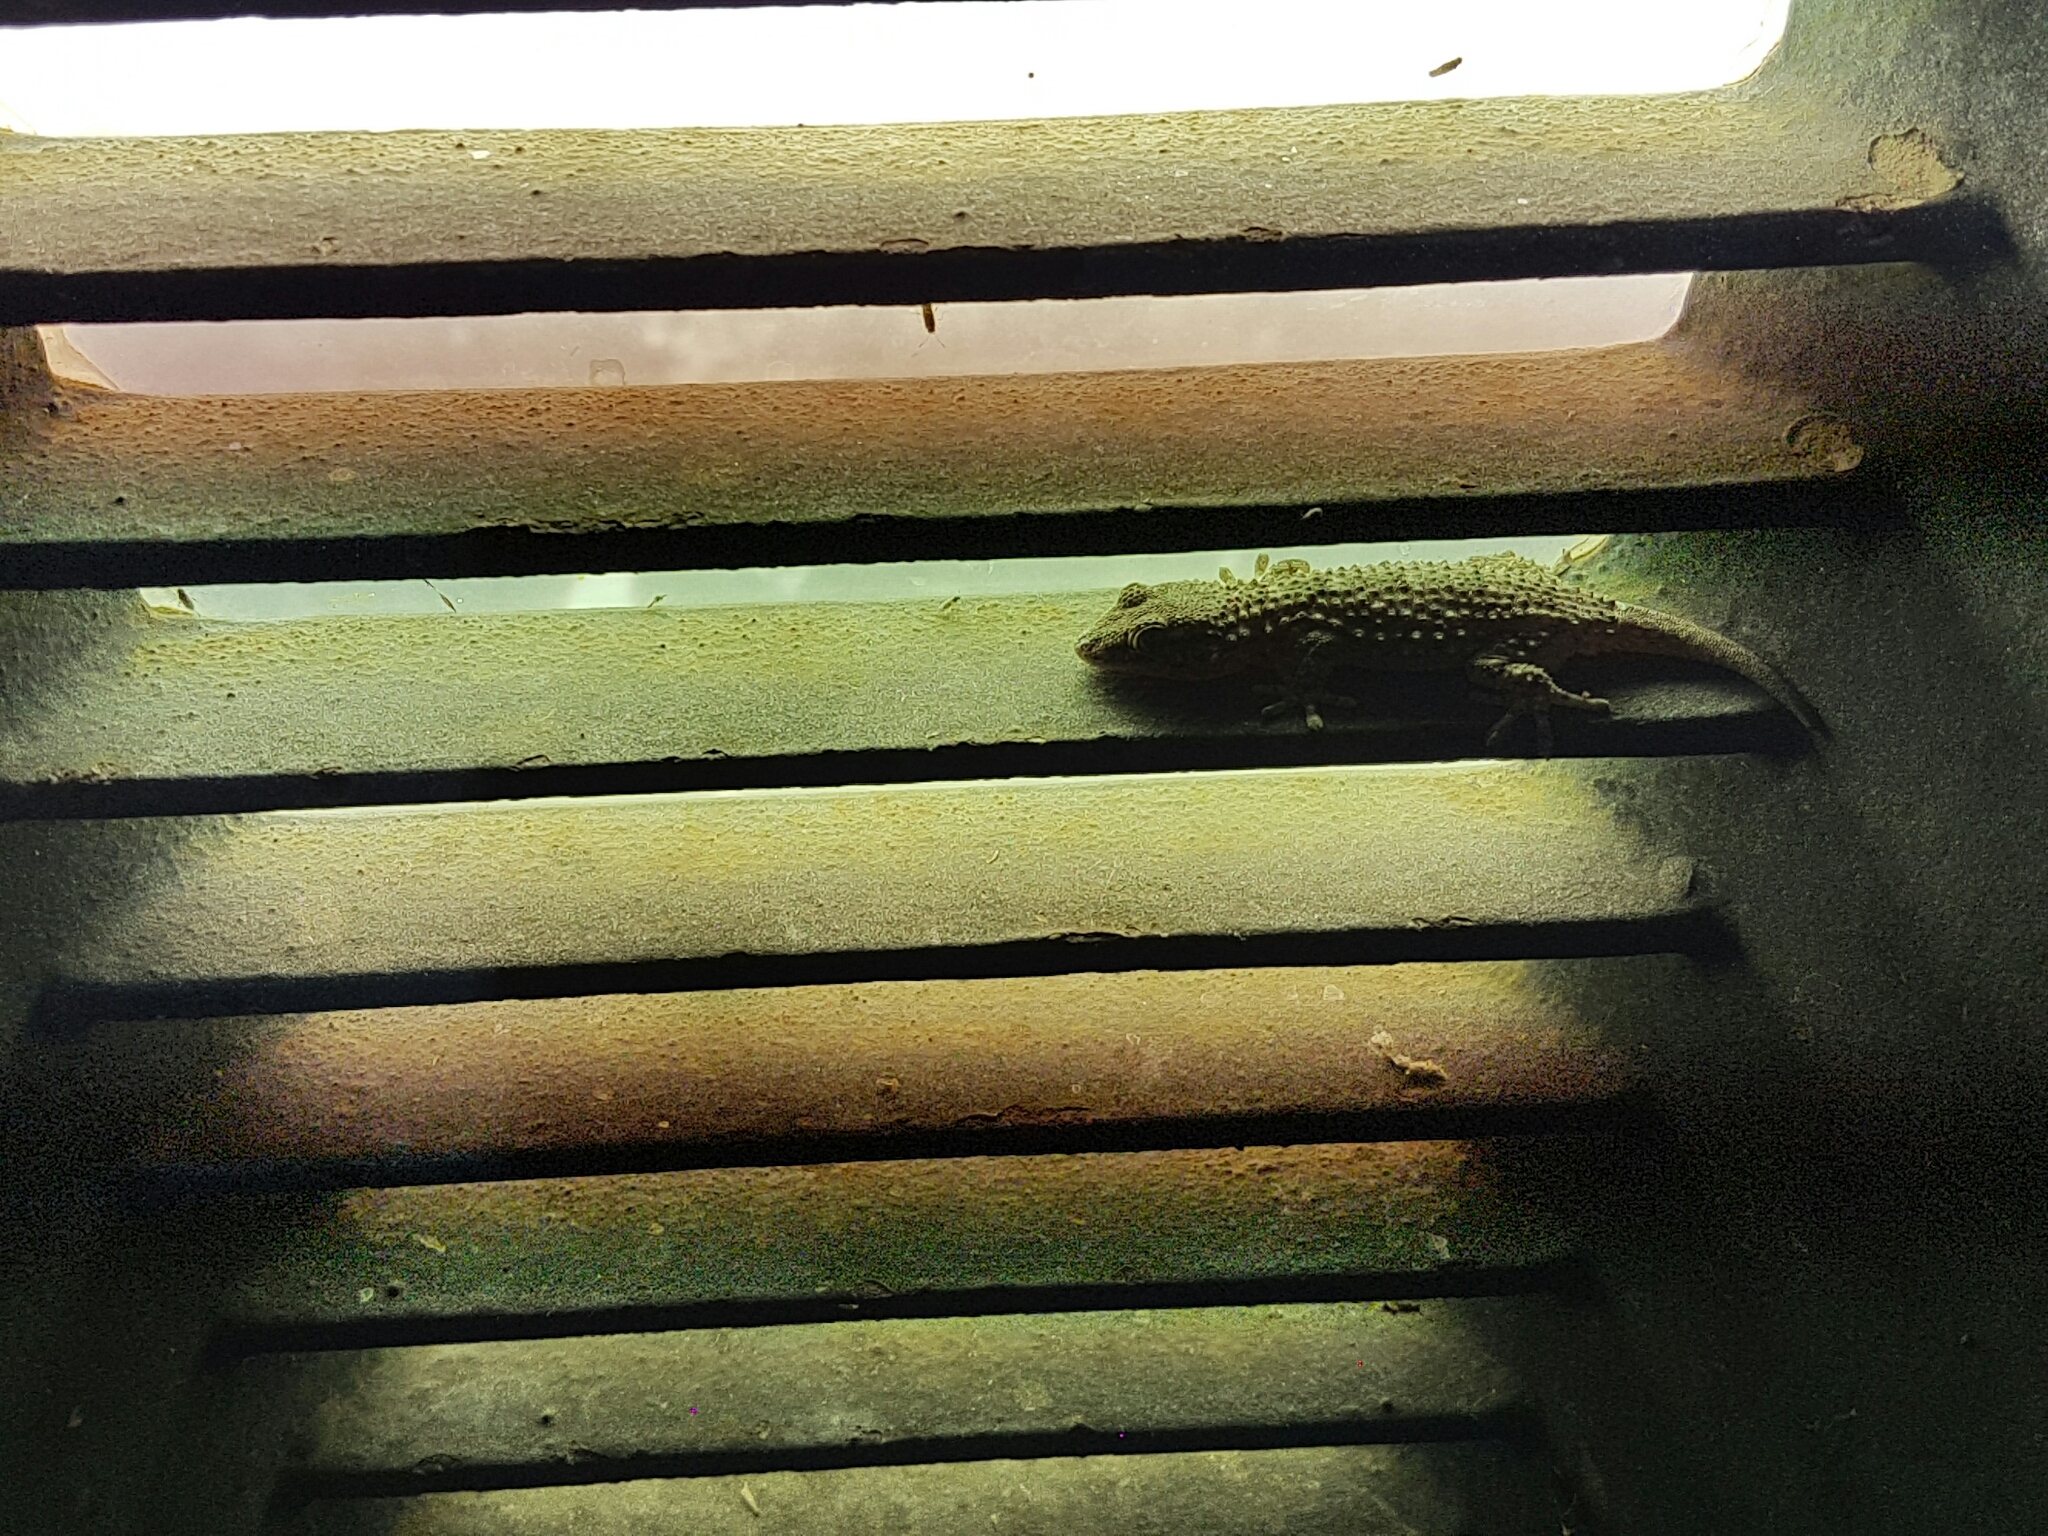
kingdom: Animalia
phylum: Chordata
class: Squamata
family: Phyllodactylidae
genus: Tarentola
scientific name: Tarentola mauritanica
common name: Moorish gecko
